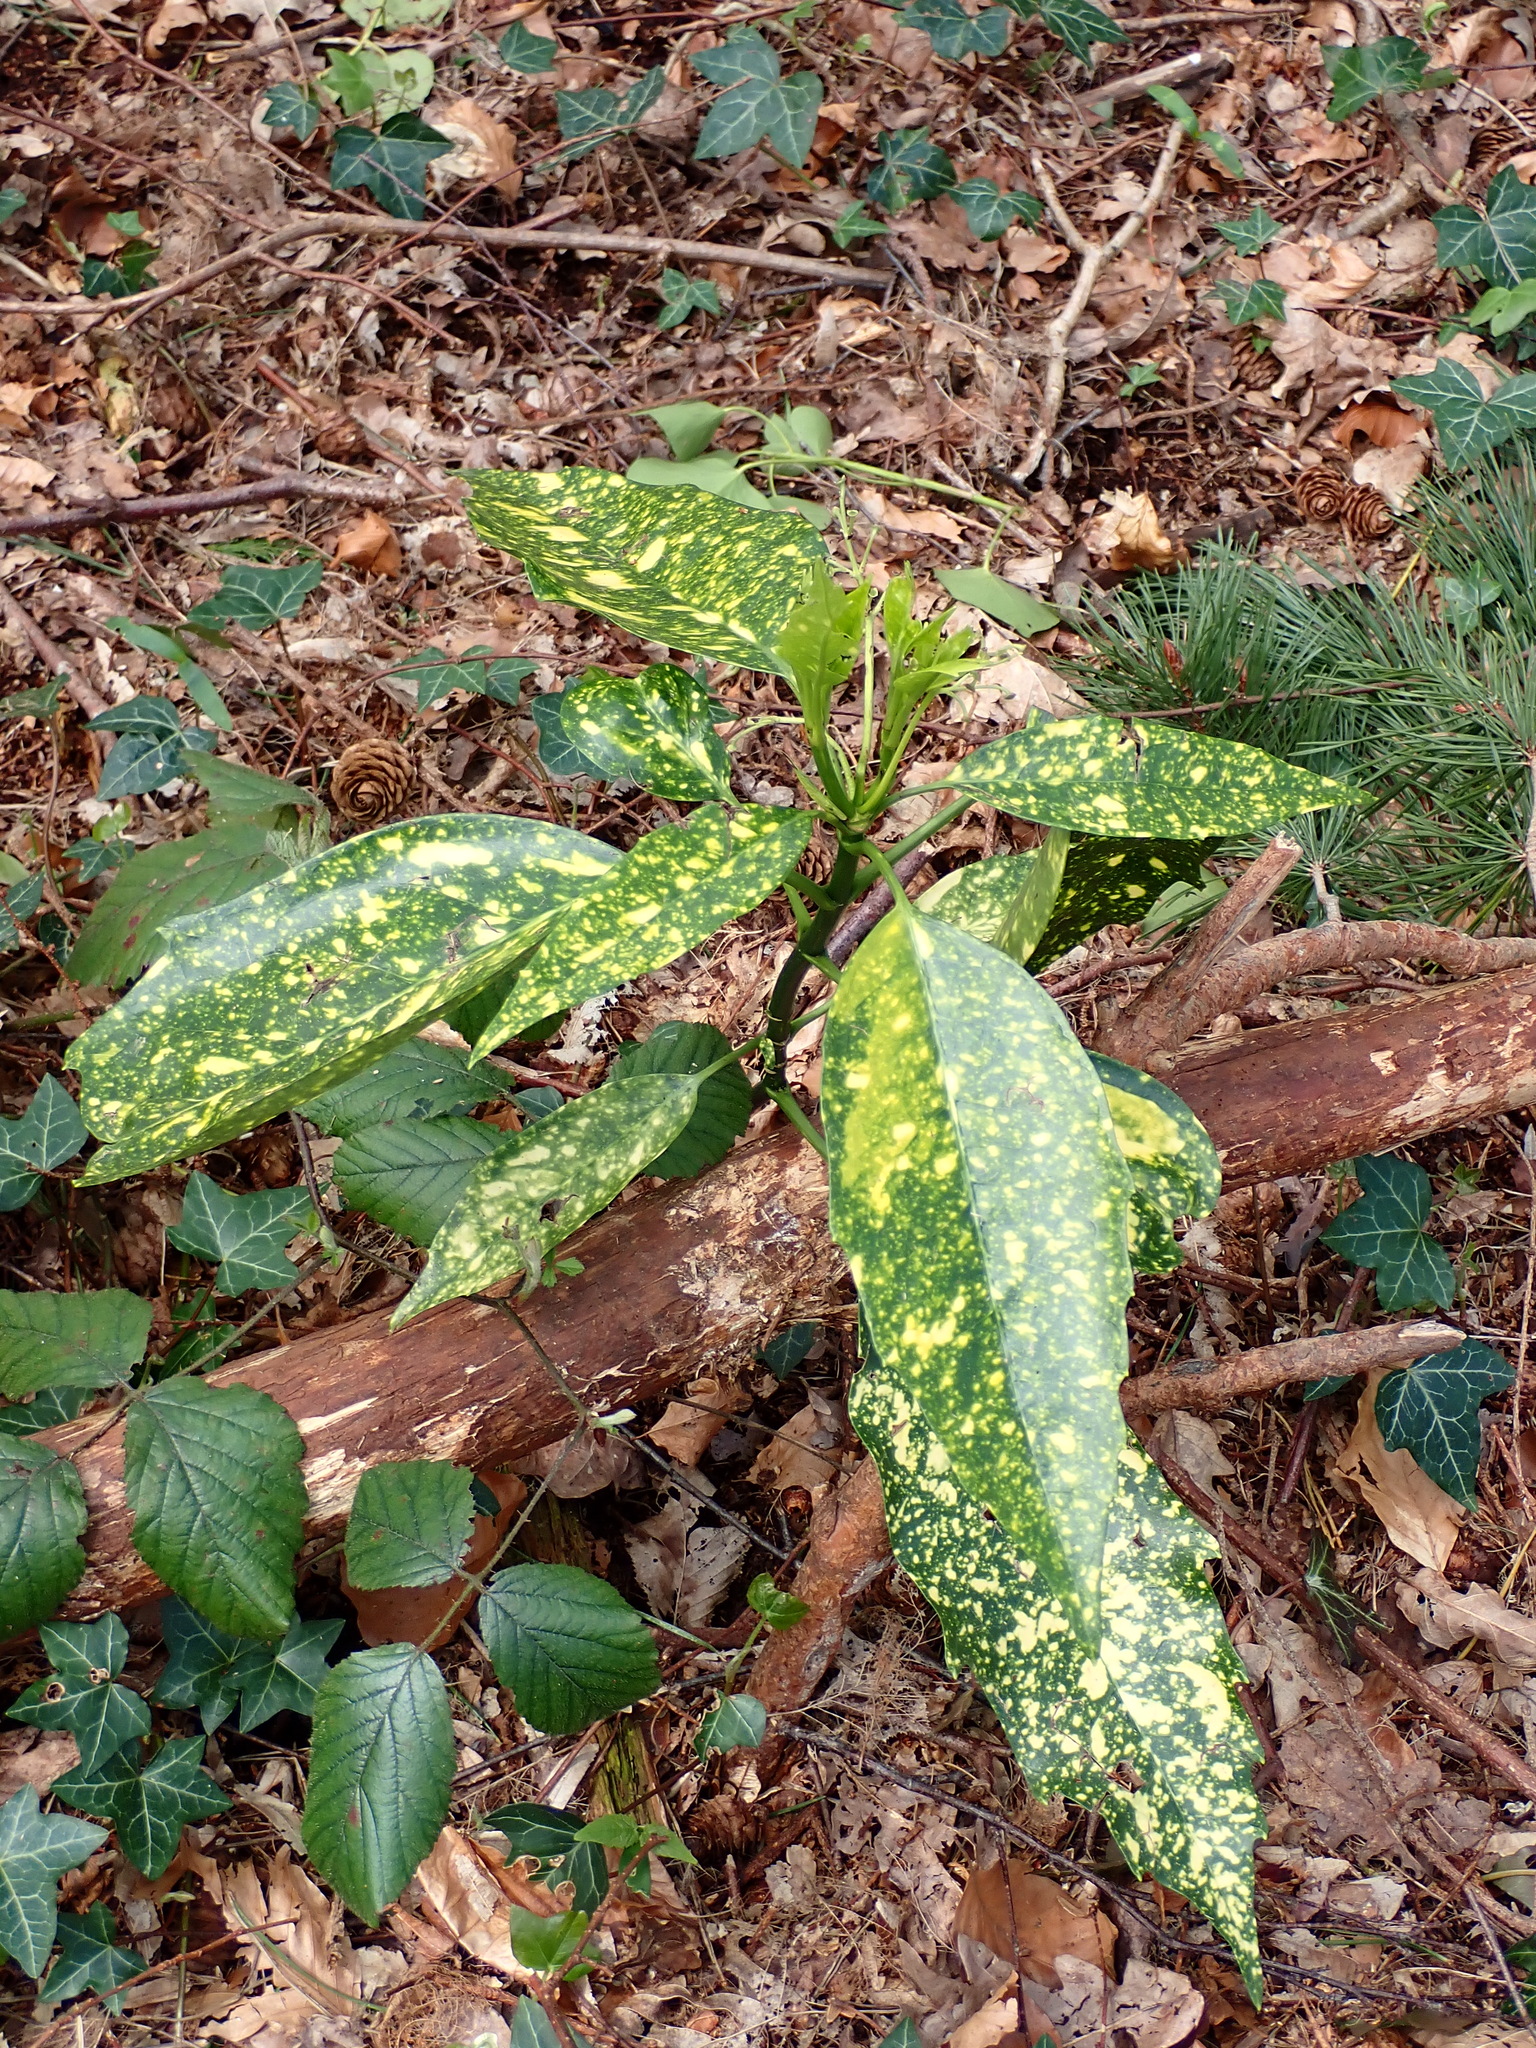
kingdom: Plantae
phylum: Tracheophyta
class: Magnoliopsida
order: Garryales
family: Garryaceae
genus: Aucuba
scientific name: Aucuba japonica
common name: Spotted-laurel
